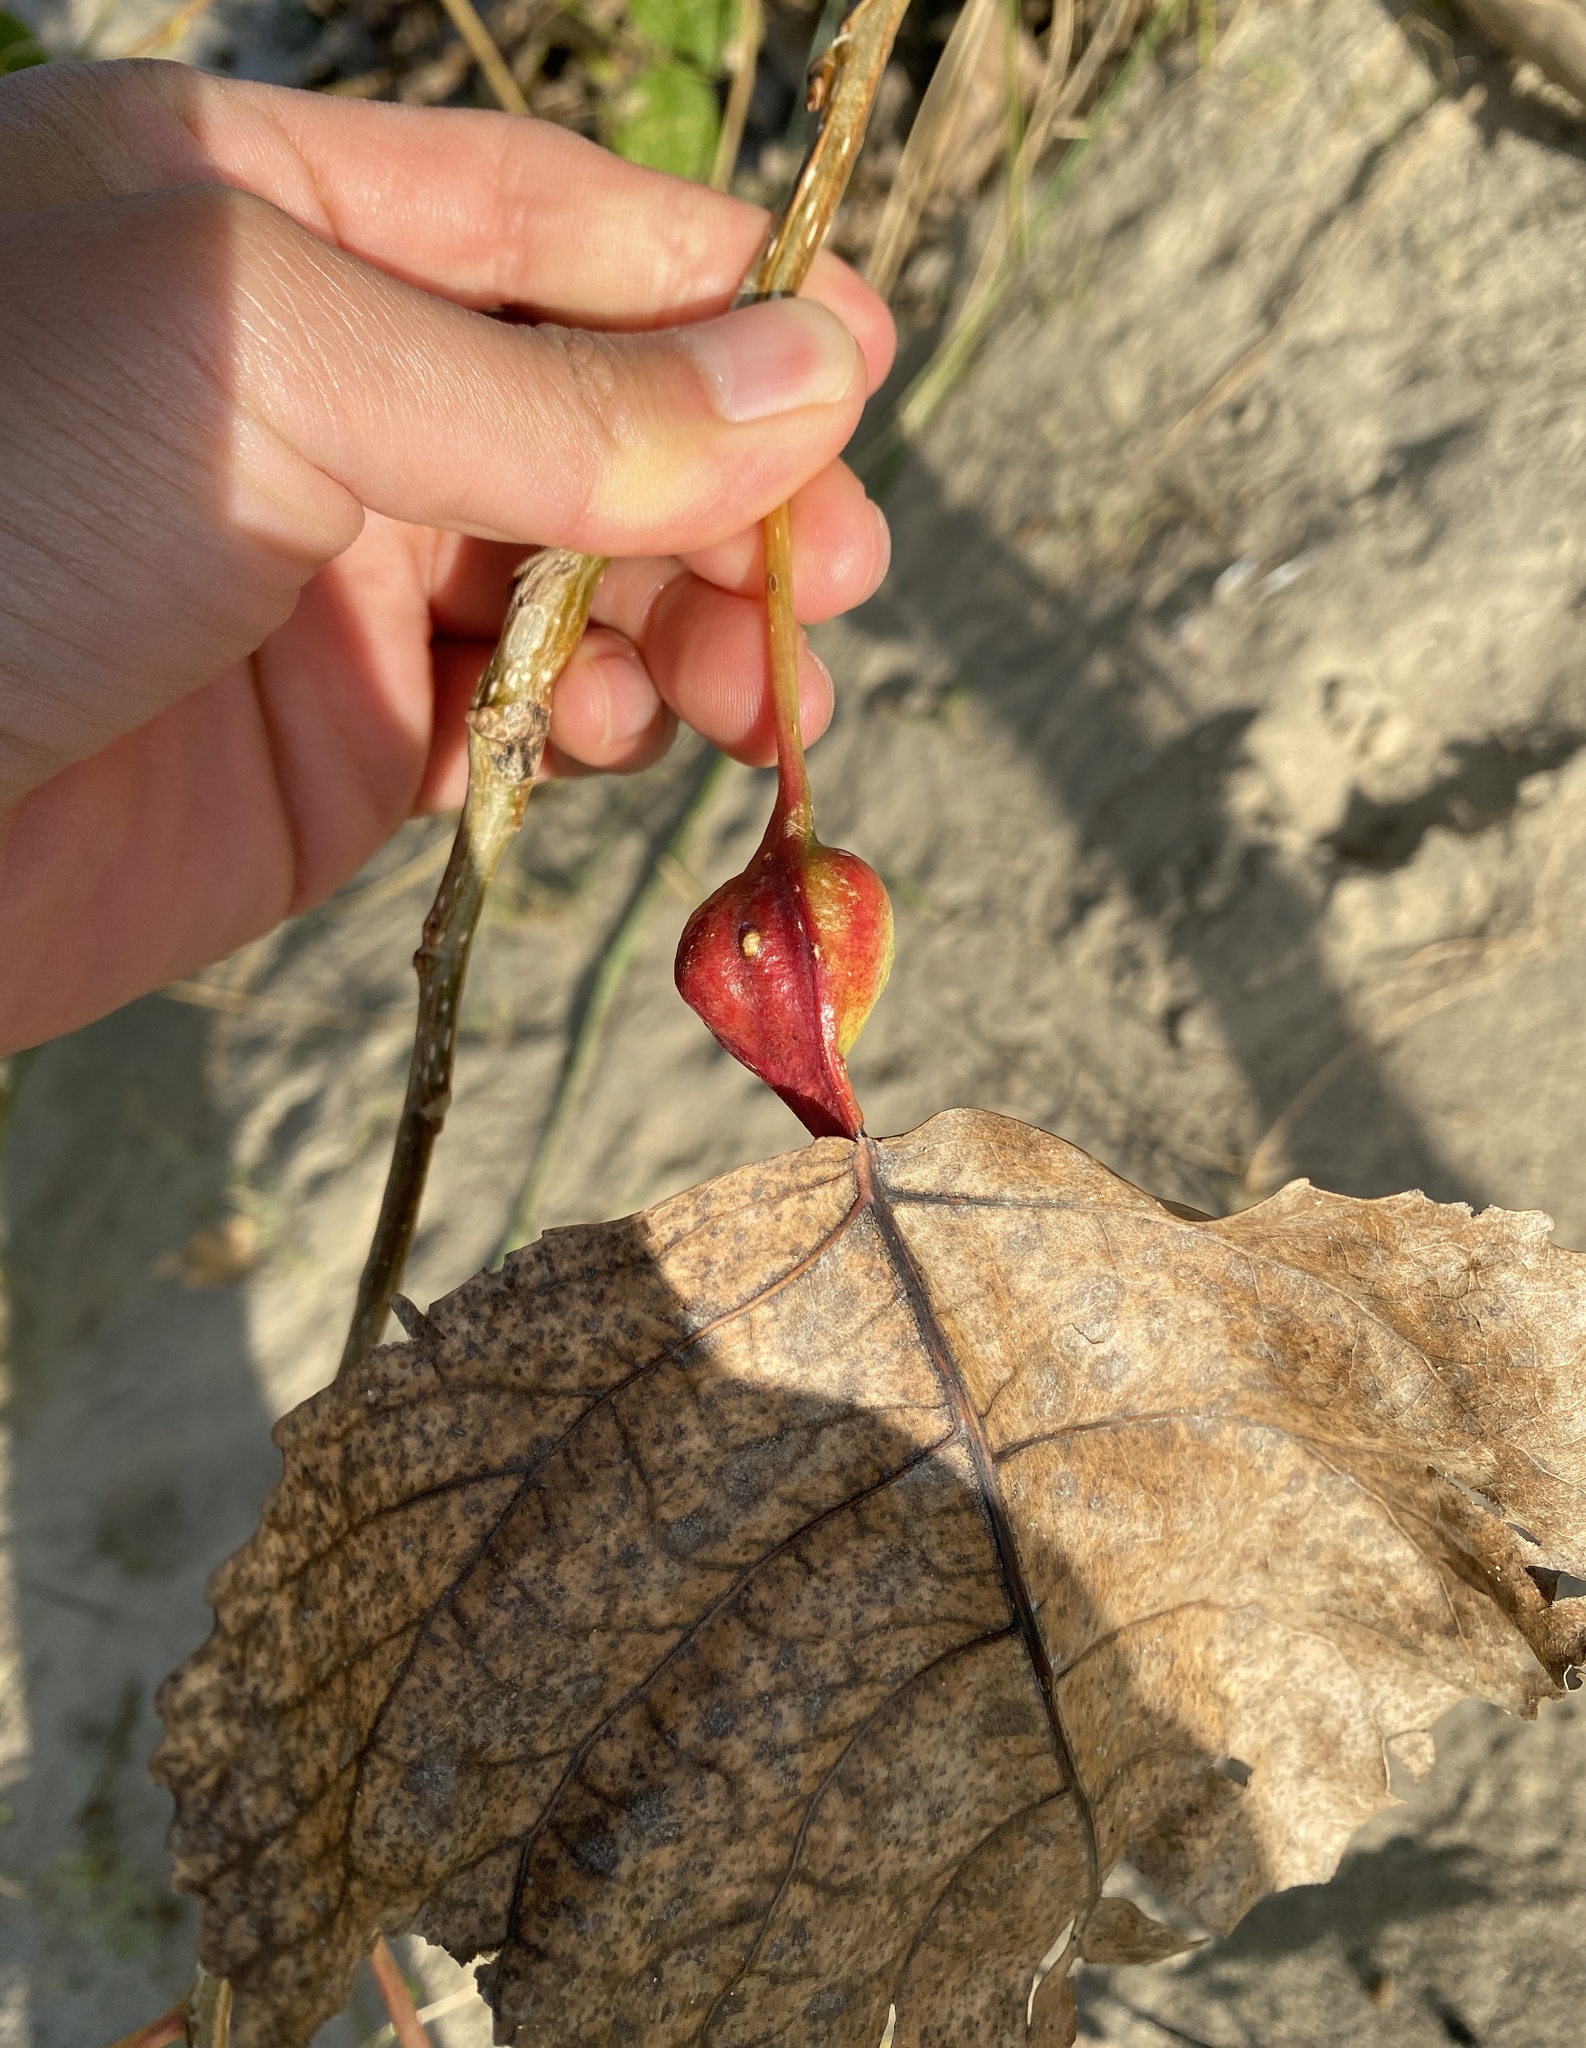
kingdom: Animalia
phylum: Arthropoda
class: Insecta
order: Hemiptera
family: Aphididae
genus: Pemphigus
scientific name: Pemphigus obesinymphae
